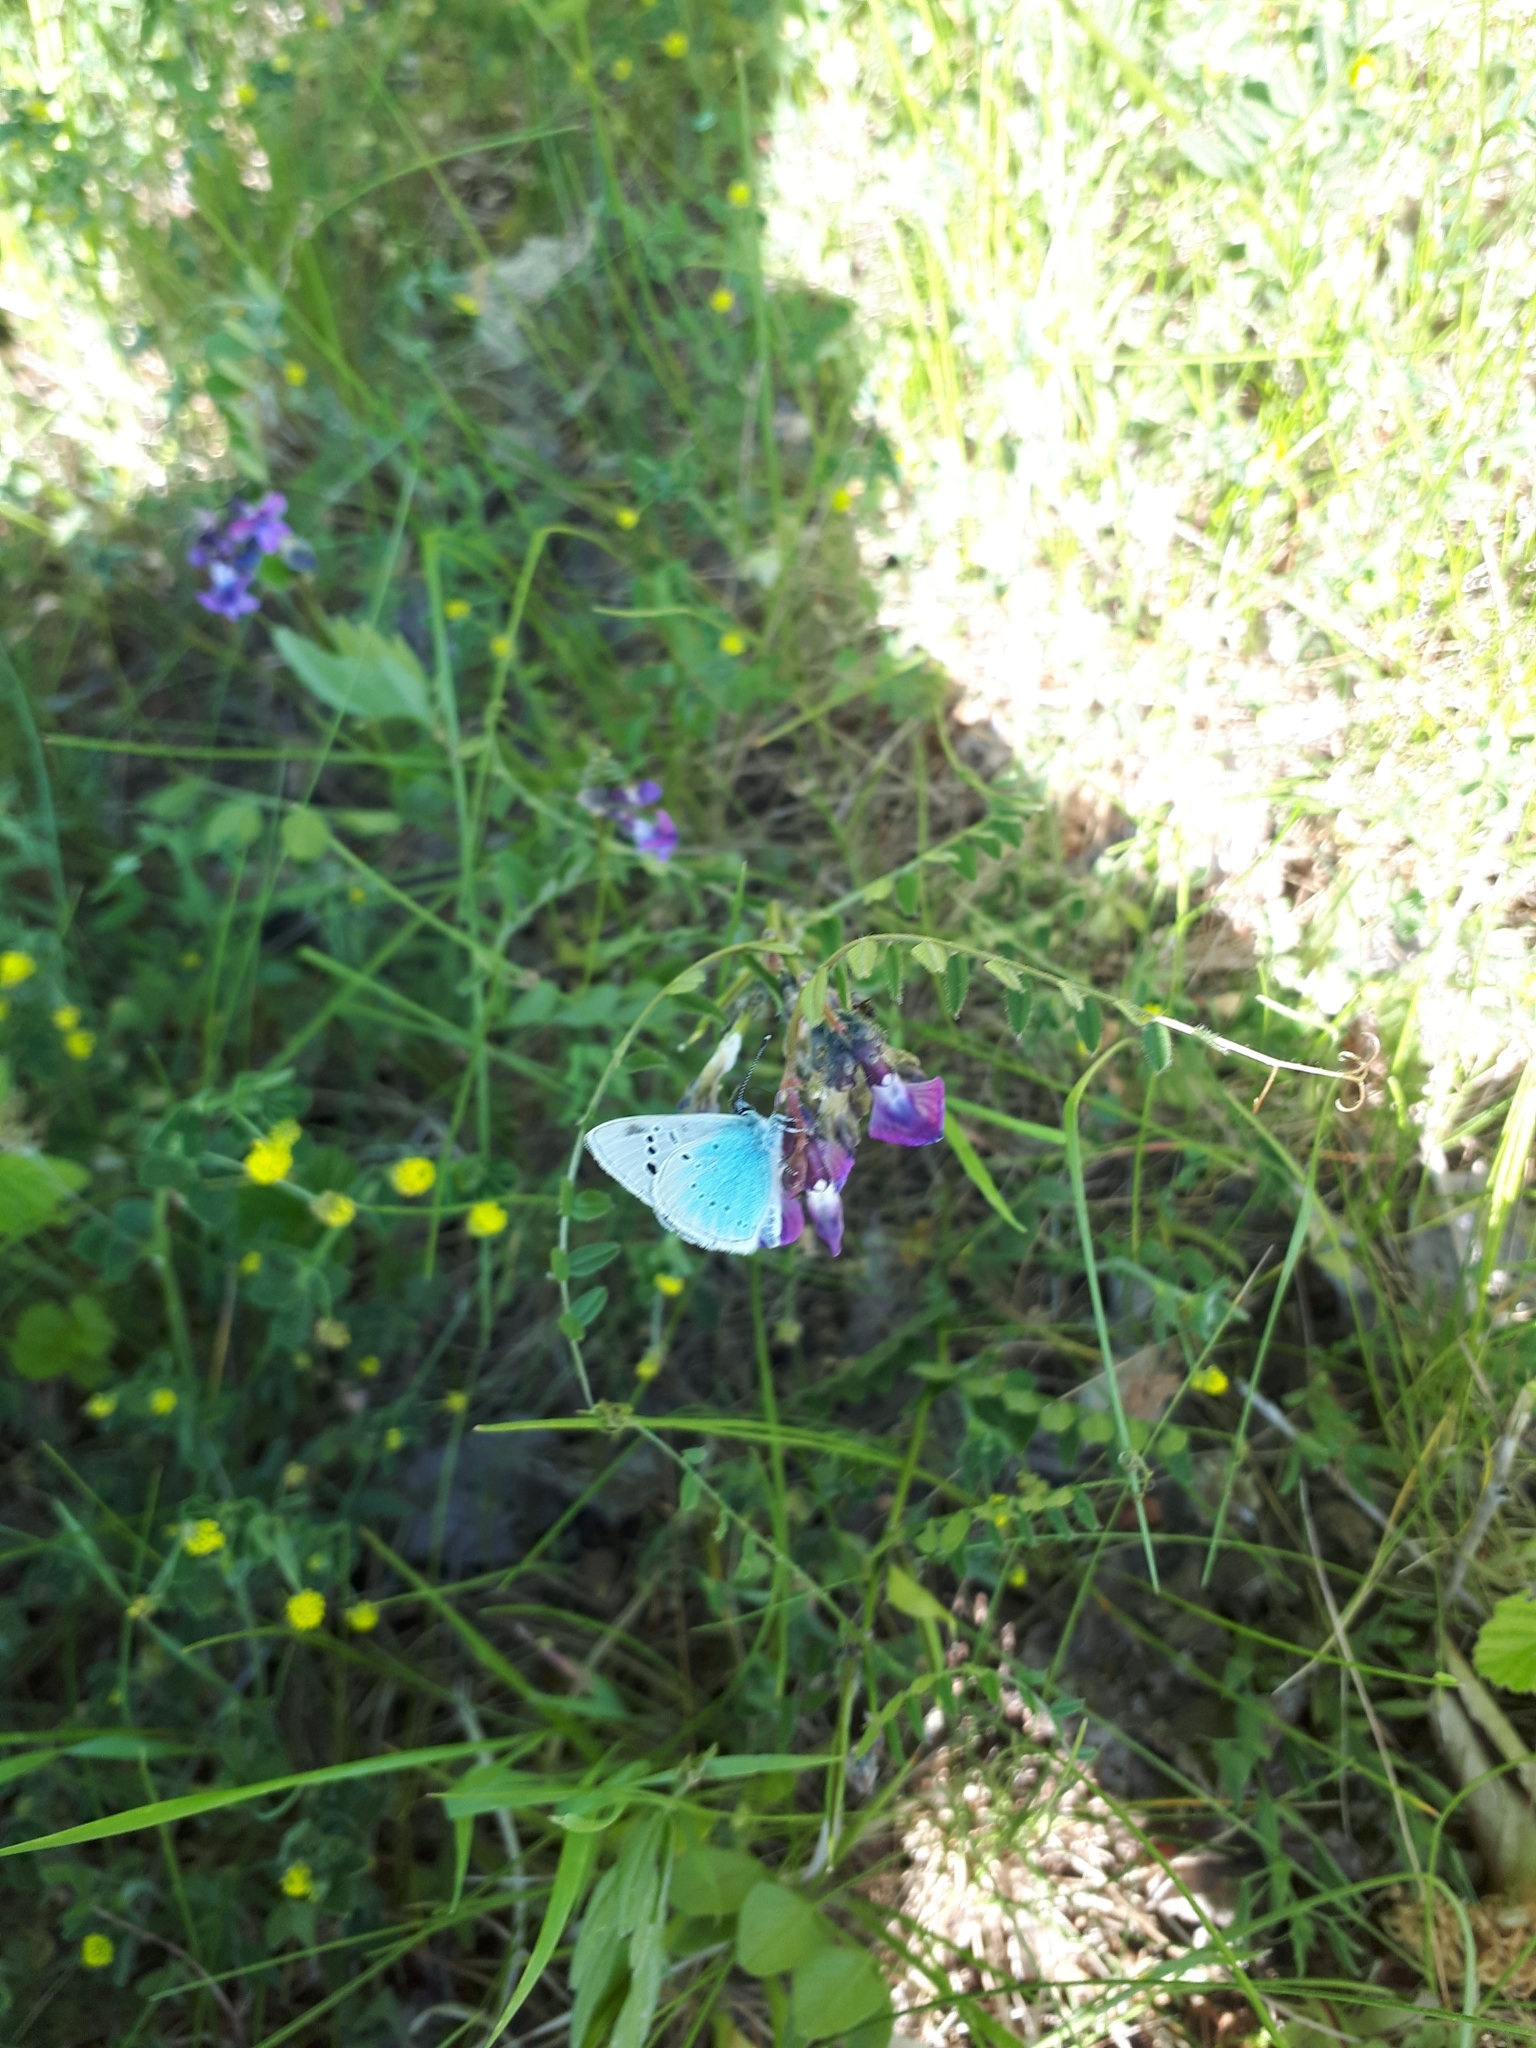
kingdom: Animalia
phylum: Arthropoda
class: Insecta
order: Lepidoptera
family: Lycaenidae
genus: Glaucopsyche
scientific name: Glaucopsyche alexis
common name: Green-underside blue
